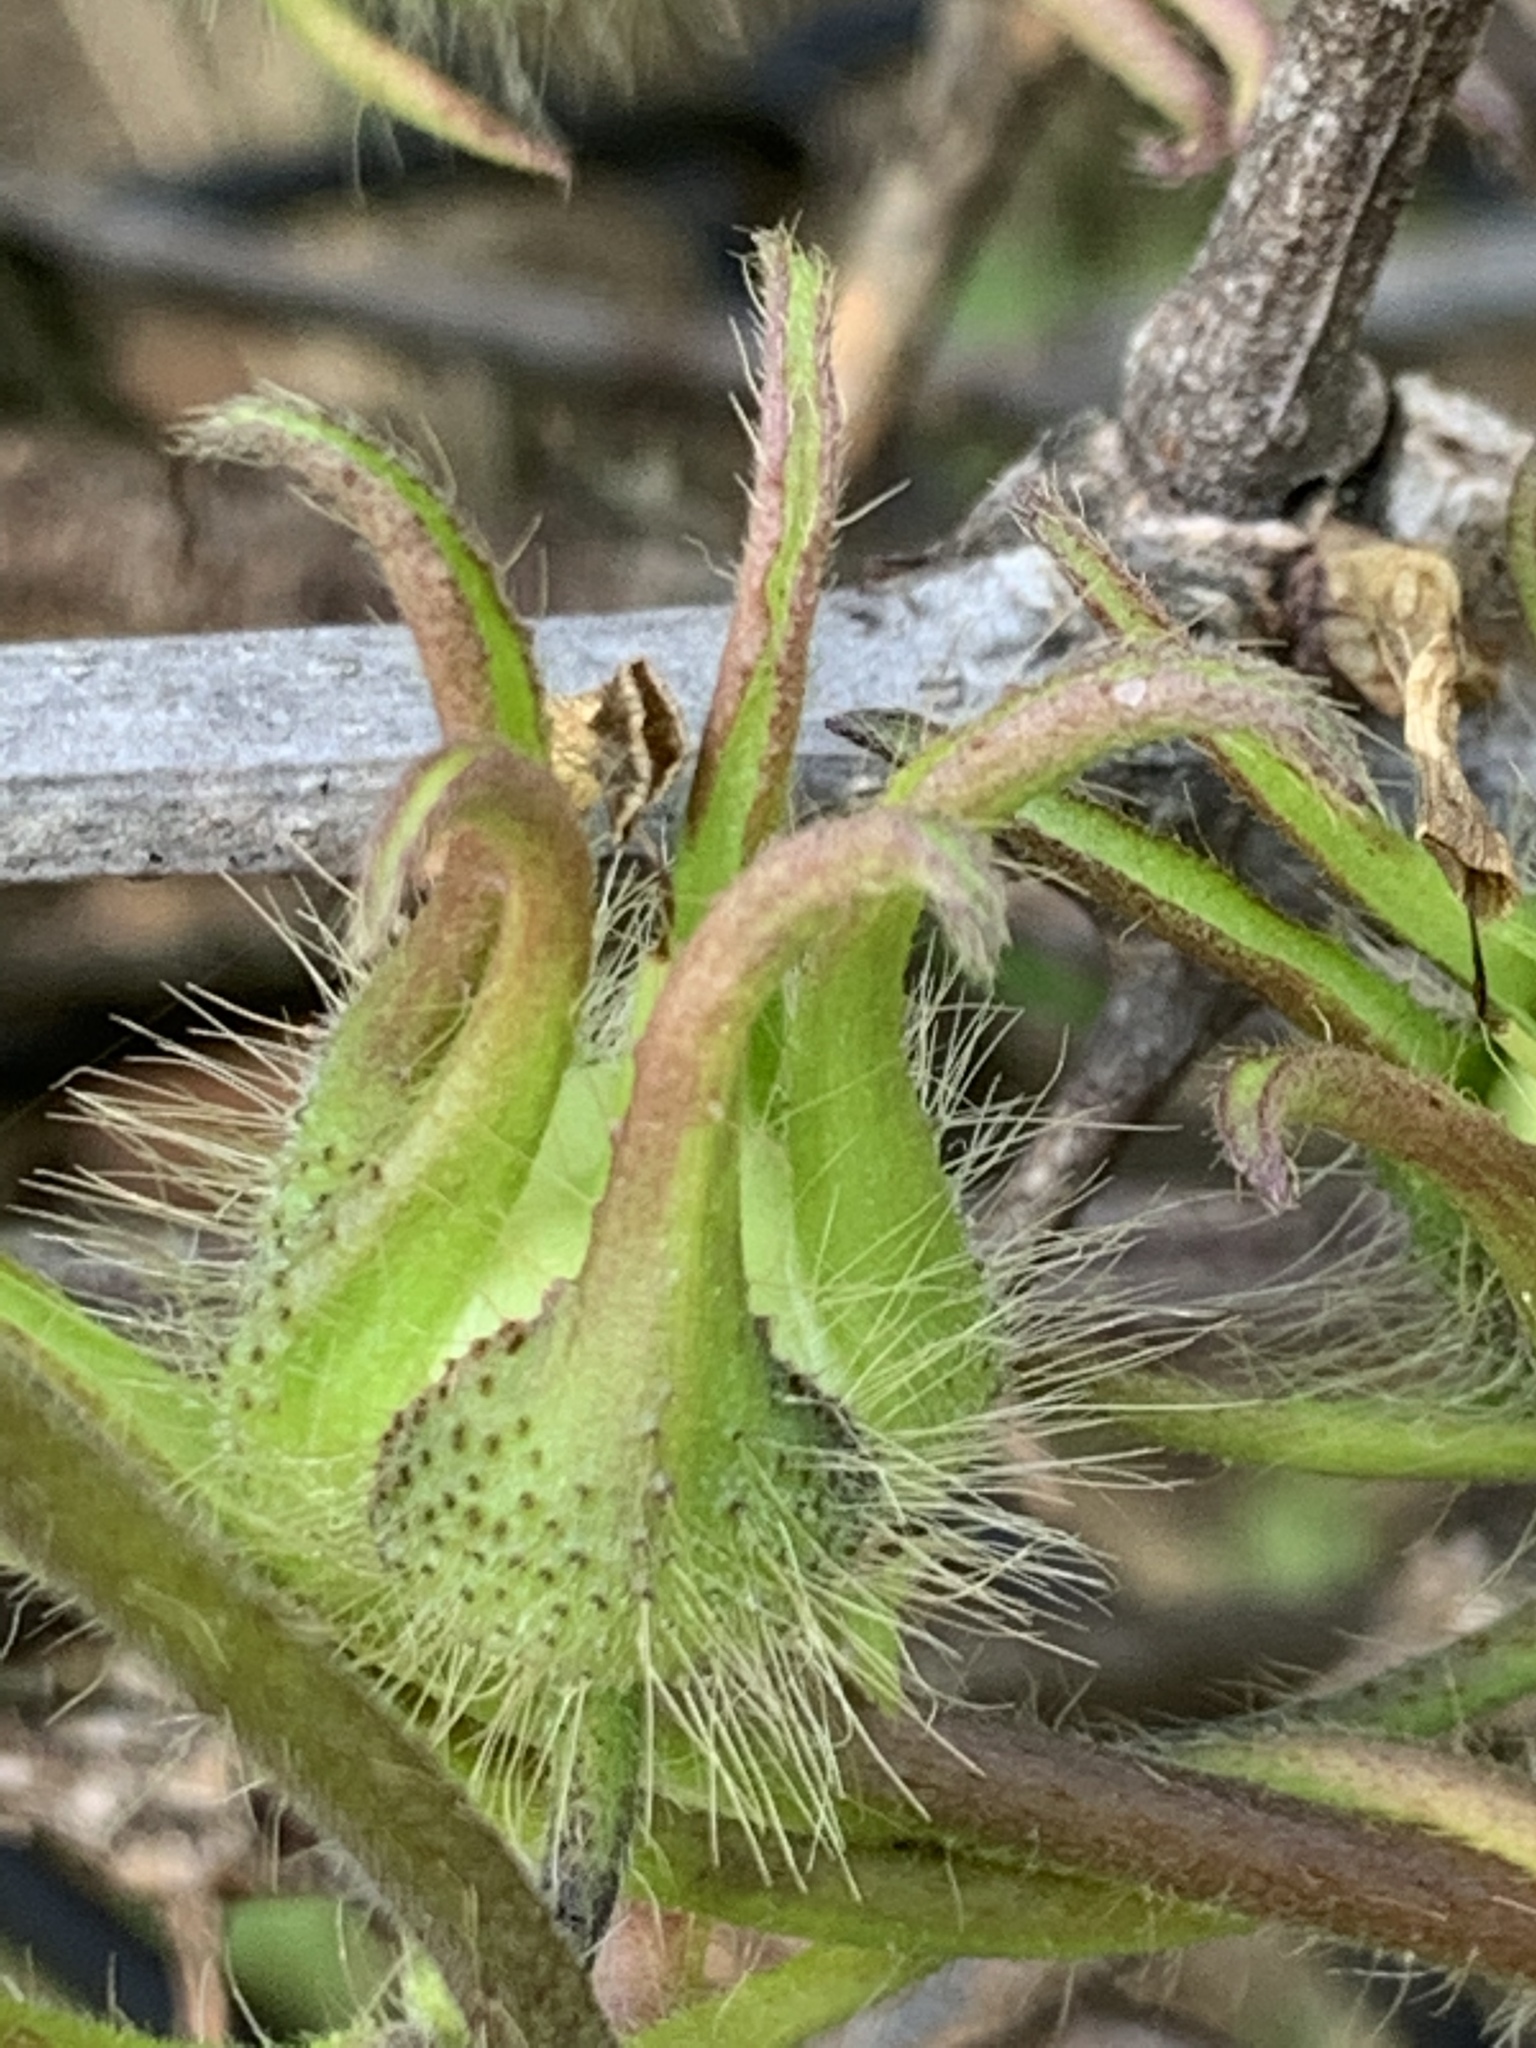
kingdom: Plantae
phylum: Tracheophyta
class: Magnoliopsida
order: Solanales
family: Convolvulaceae
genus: Ipomoea
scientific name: Ipomoea hederacea
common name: Ivy-leaved morning-glory
